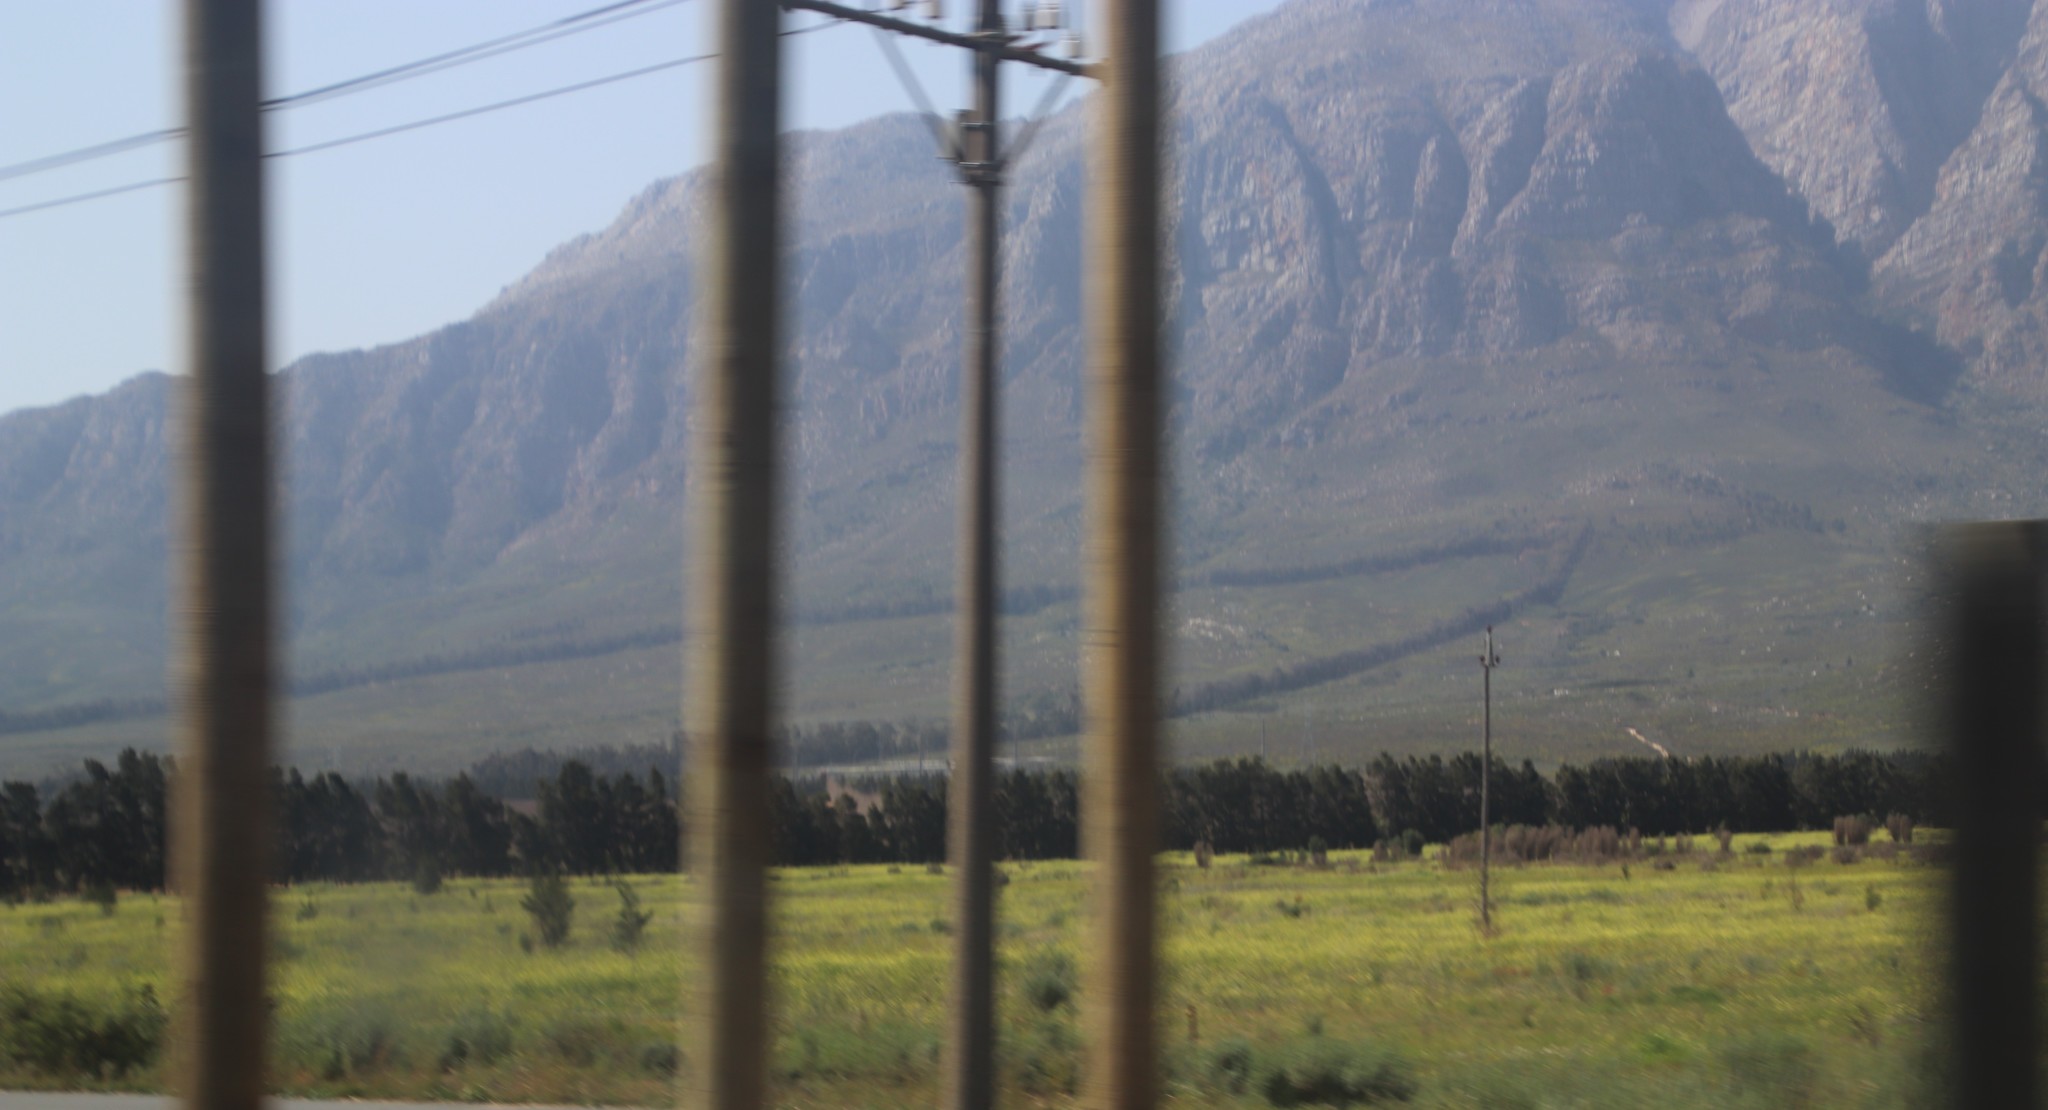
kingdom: Plantae
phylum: Tracheophyta
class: Magnoliopsida
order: Fagales
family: Casuarinaceae
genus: Casuarina
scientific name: Casuarina cunninghamiana
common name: River sheoak
